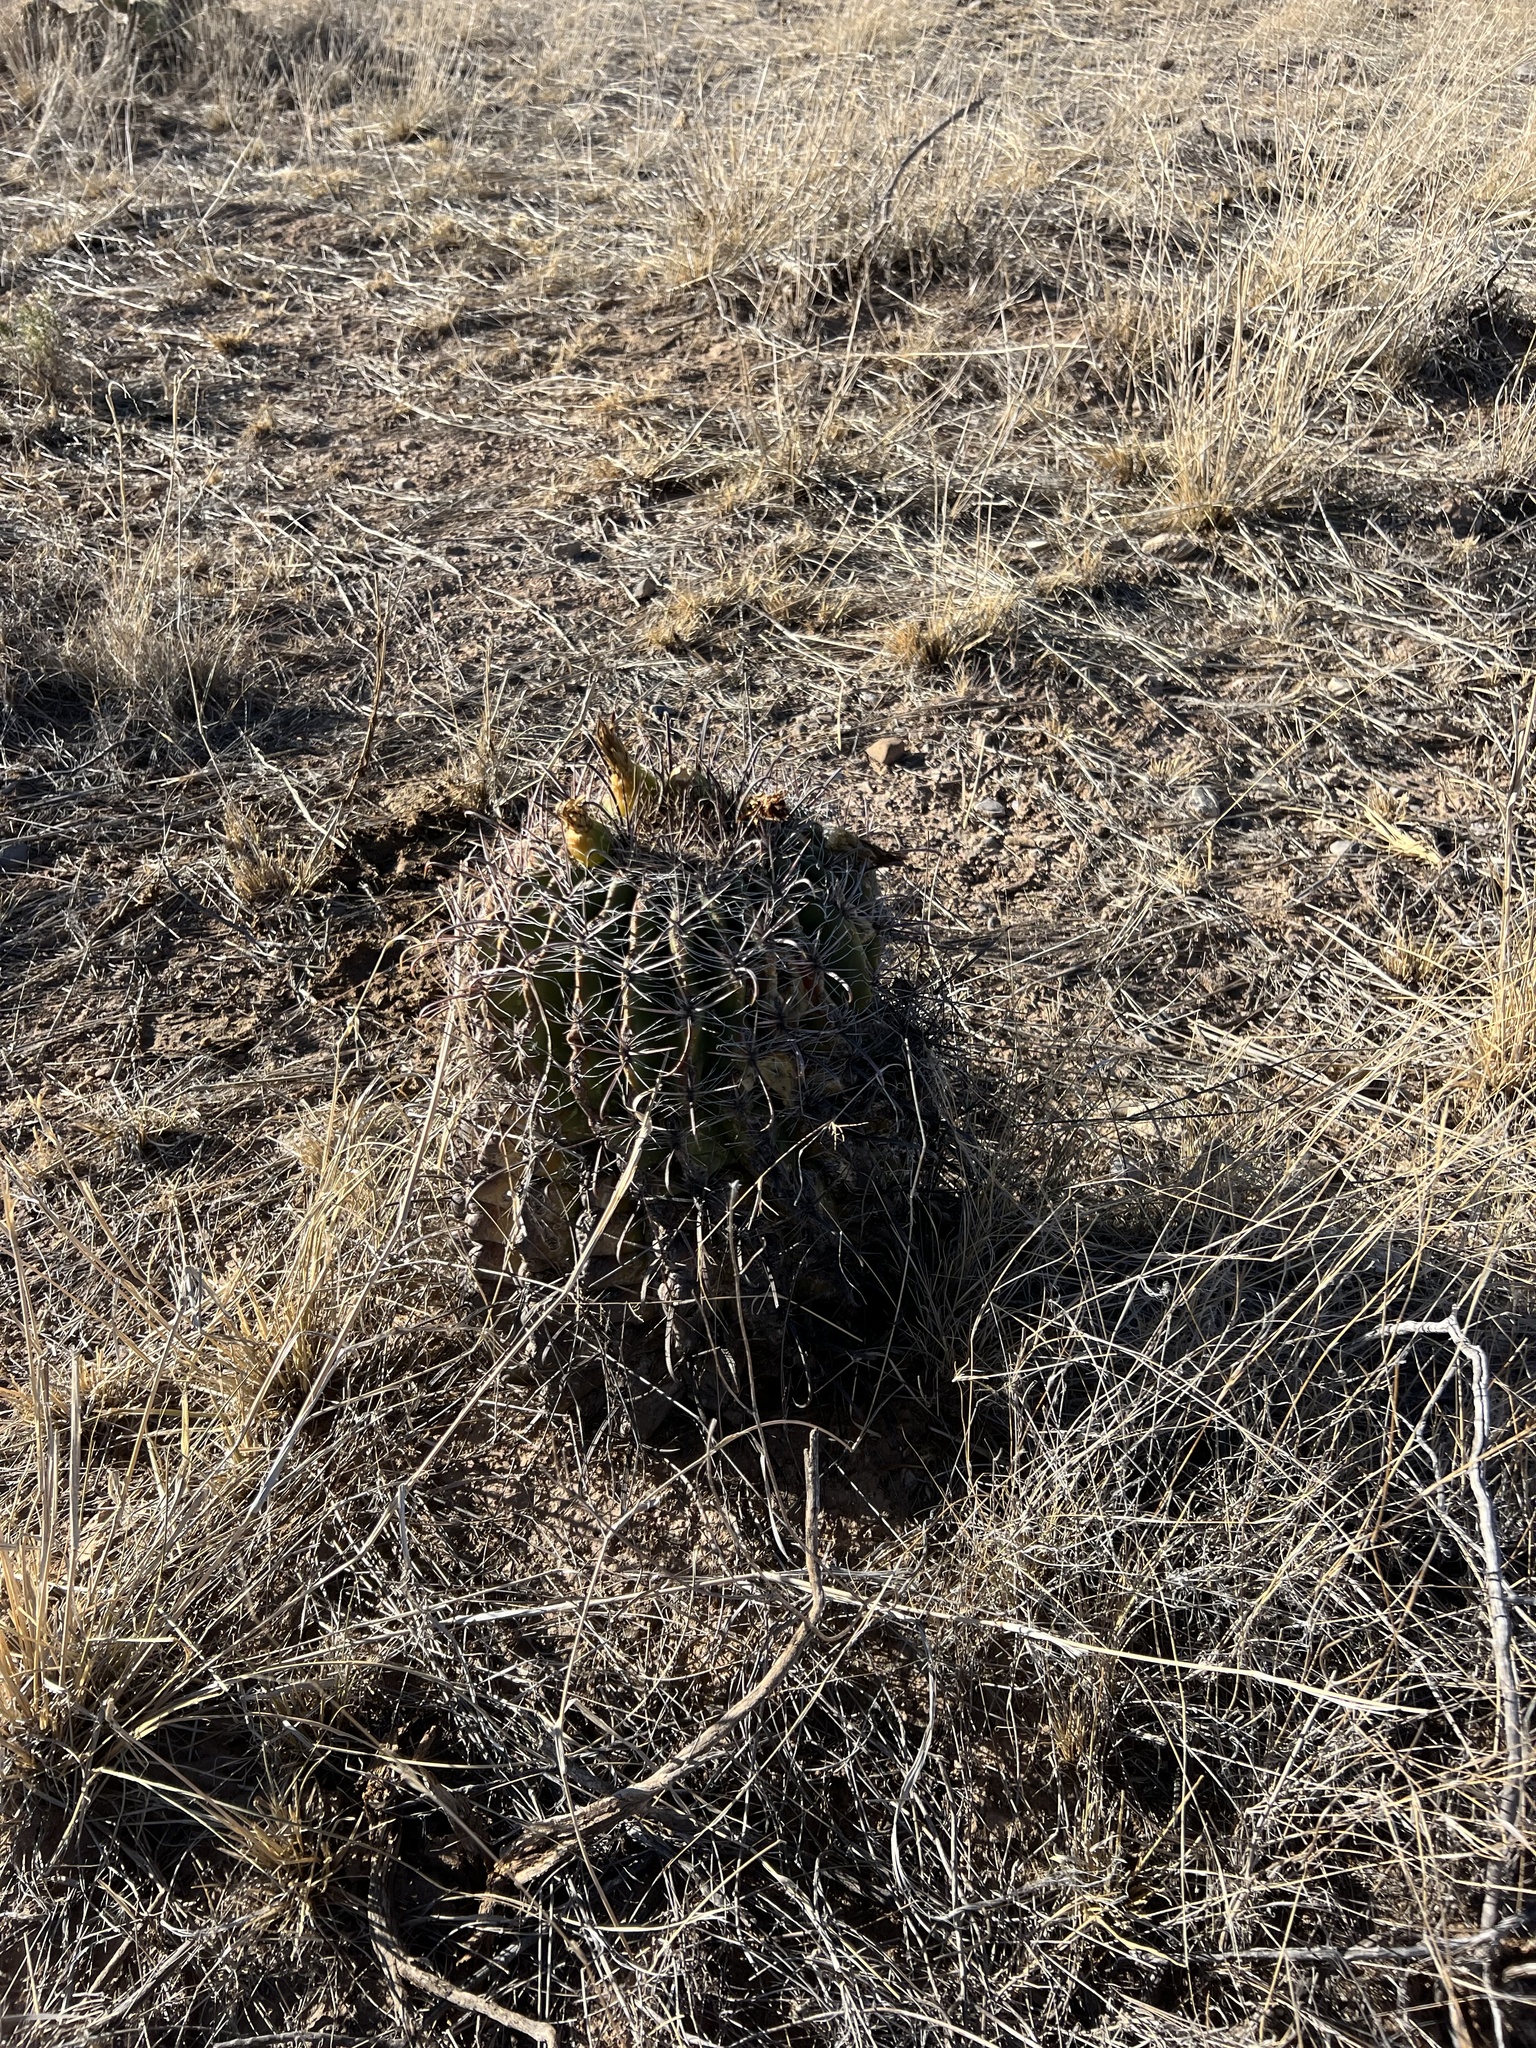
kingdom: Plantae
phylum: Tracheophyta
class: Magnoliopsida
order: Caryophyllales
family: Cactaceae
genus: Ferocactus
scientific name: Ferocactus wislizeni
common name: Candy barrel cactus
